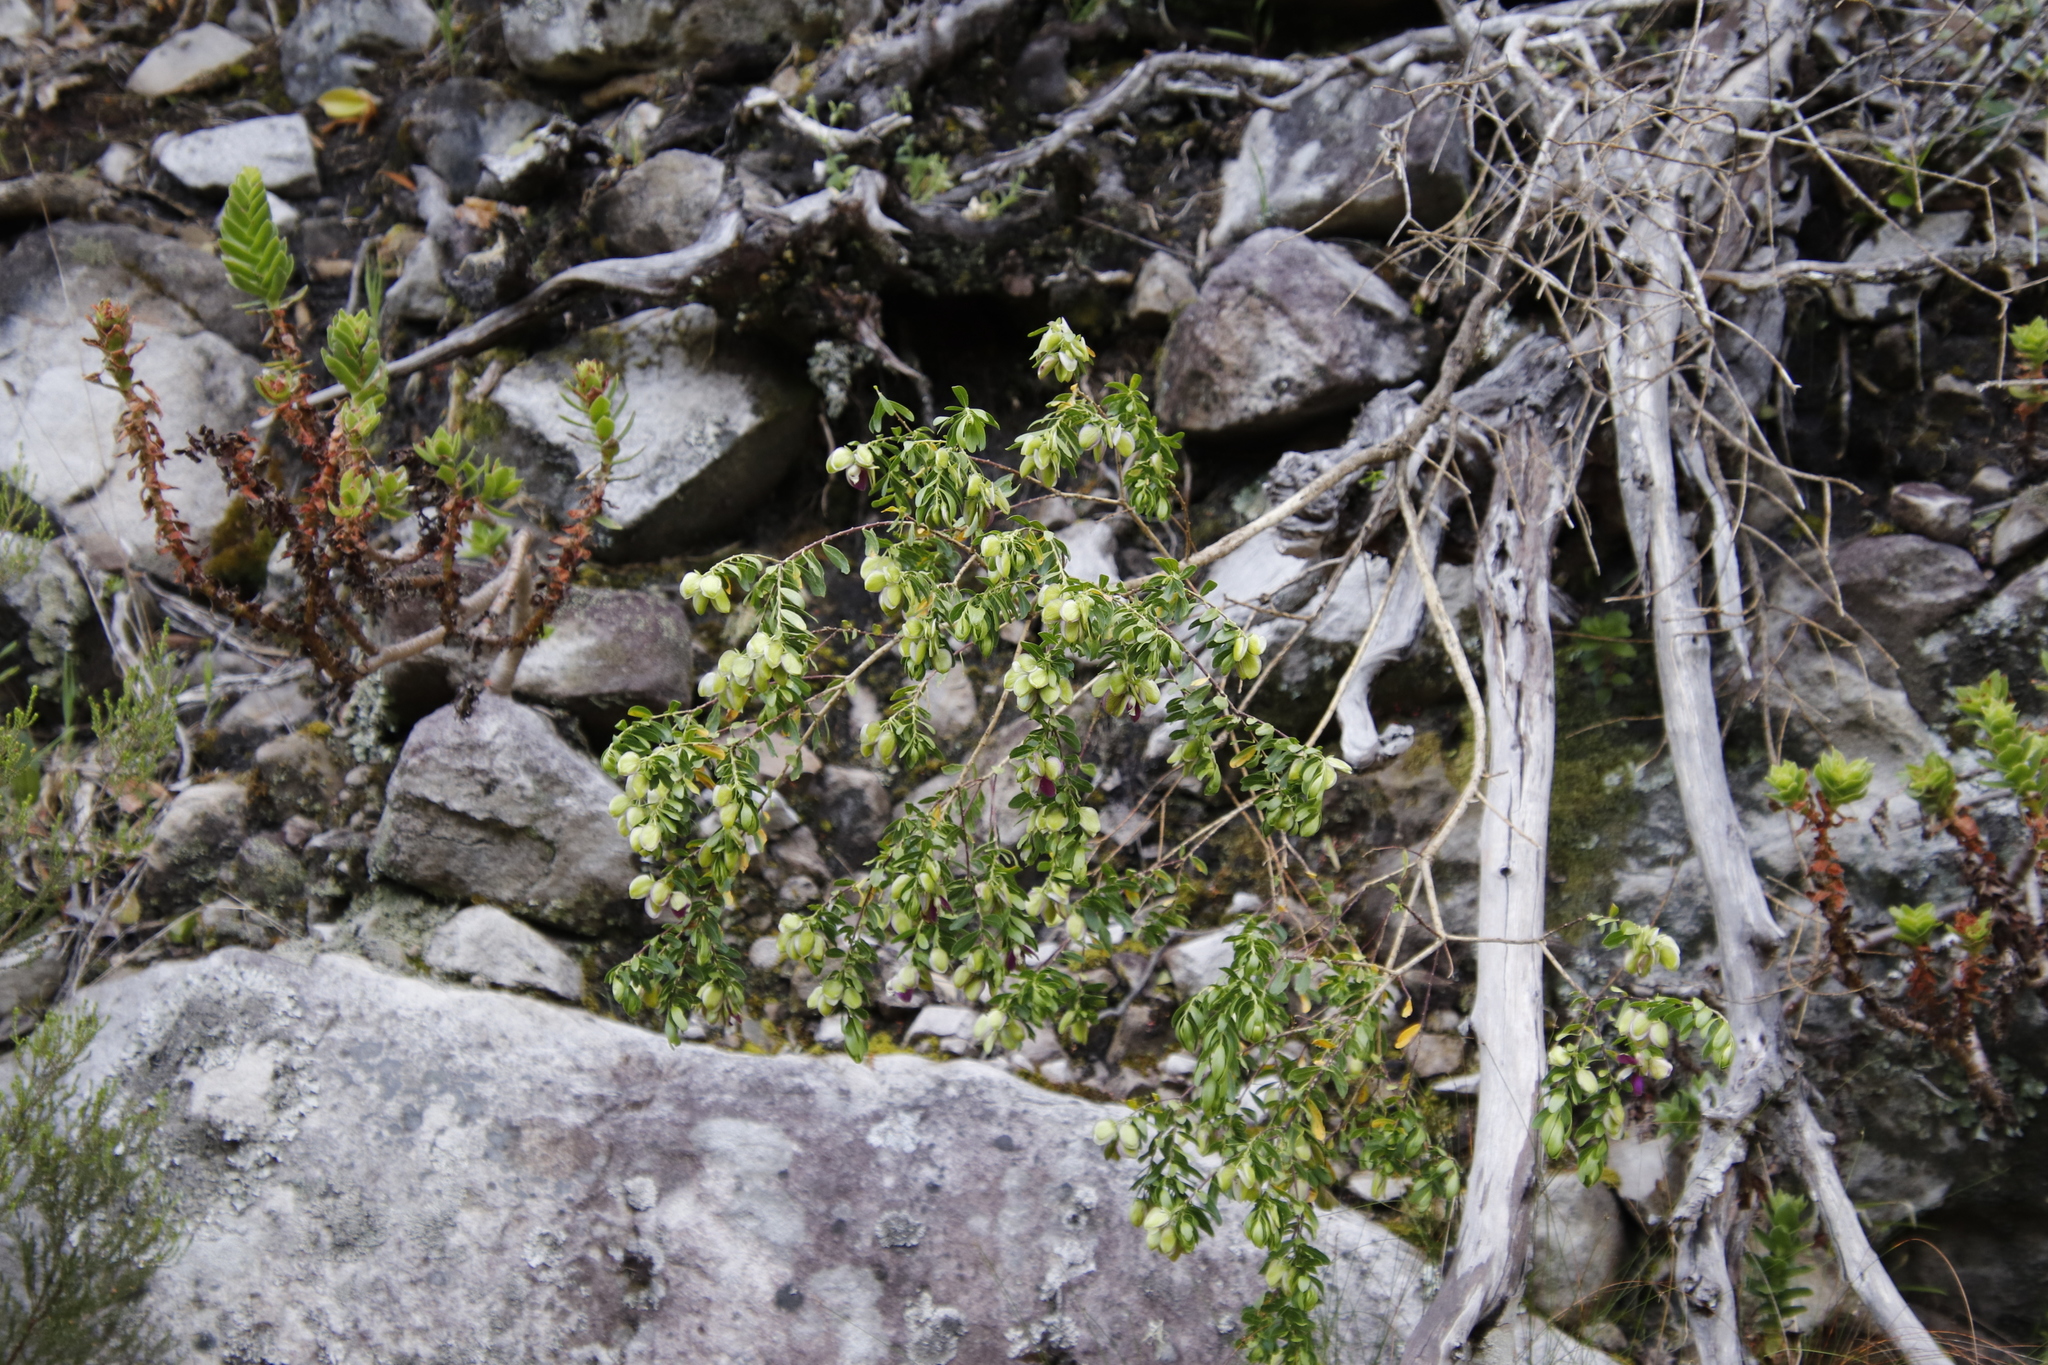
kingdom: Plantae
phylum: Tracheophyta
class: Magnoliopsida
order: Fabales
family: Polygalaceae
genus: Polygala
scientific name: Polygala myrtifolia
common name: Myrtle-leaf milkwort
